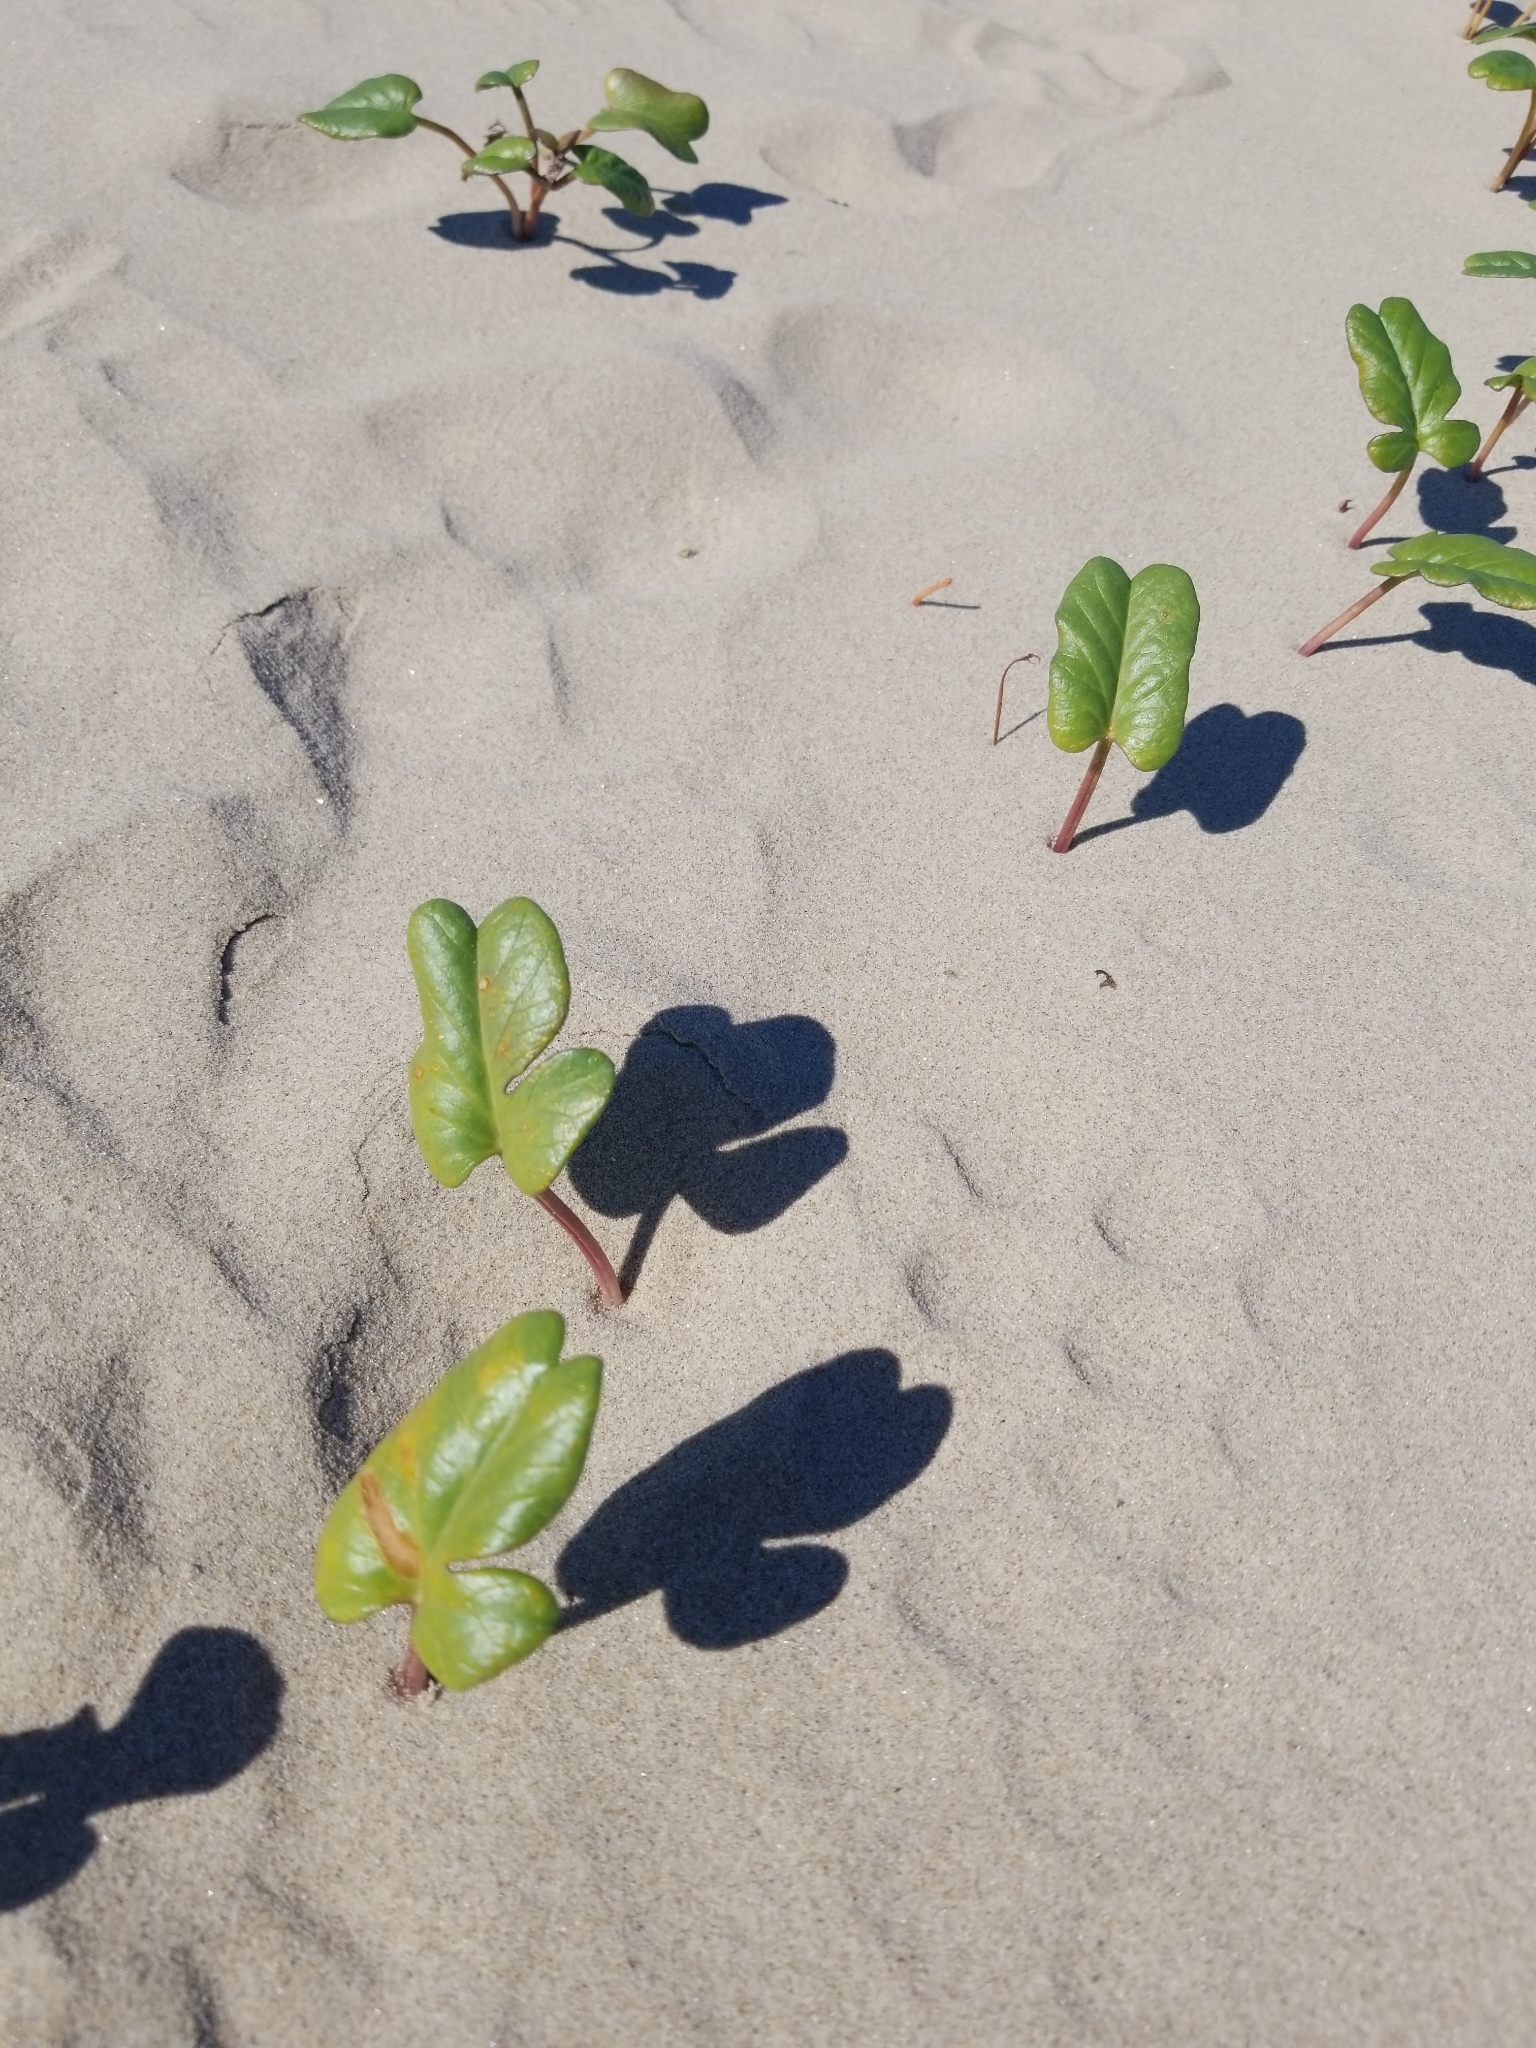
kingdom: Plantae
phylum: Tracheophyta
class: Magnoliopsida
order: Solanales
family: Convolvulaceae
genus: Ipomoea
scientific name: Ipomoea imperati
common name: Fiddle-leaf morning-glory
